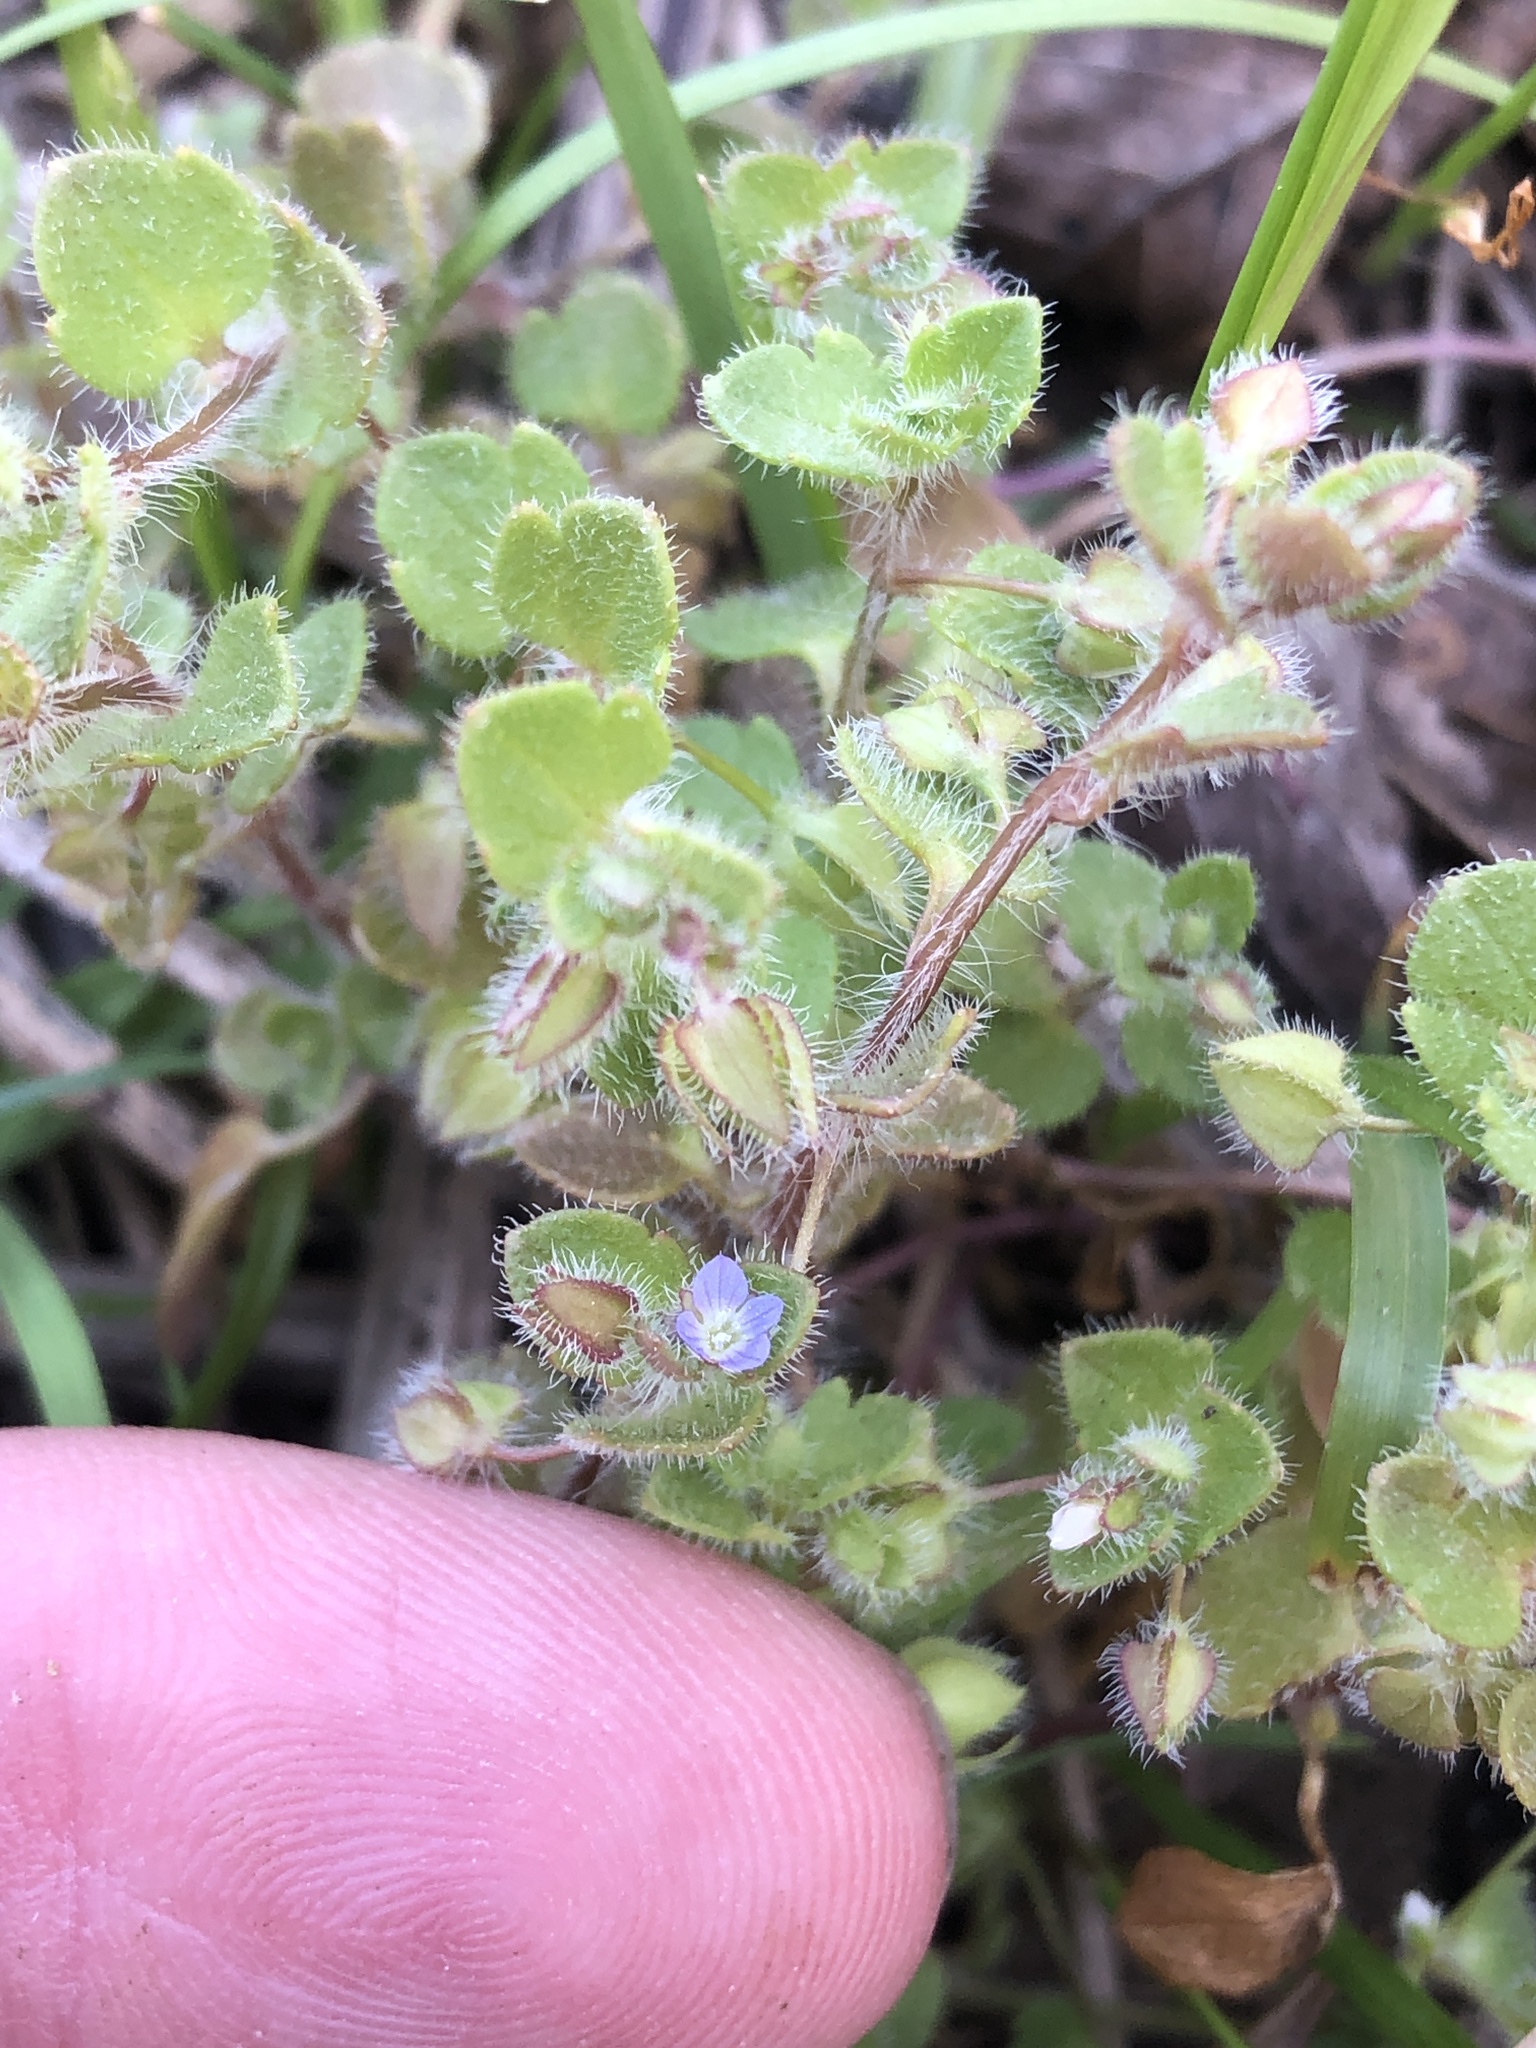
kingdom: Plantae
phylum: Tracheophyta
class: Magnoliopsida
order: Lamiales
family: Plantaginaceae
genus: Veronica
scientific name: Veronica hederifolia
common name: Ivy-leaved speedwell
